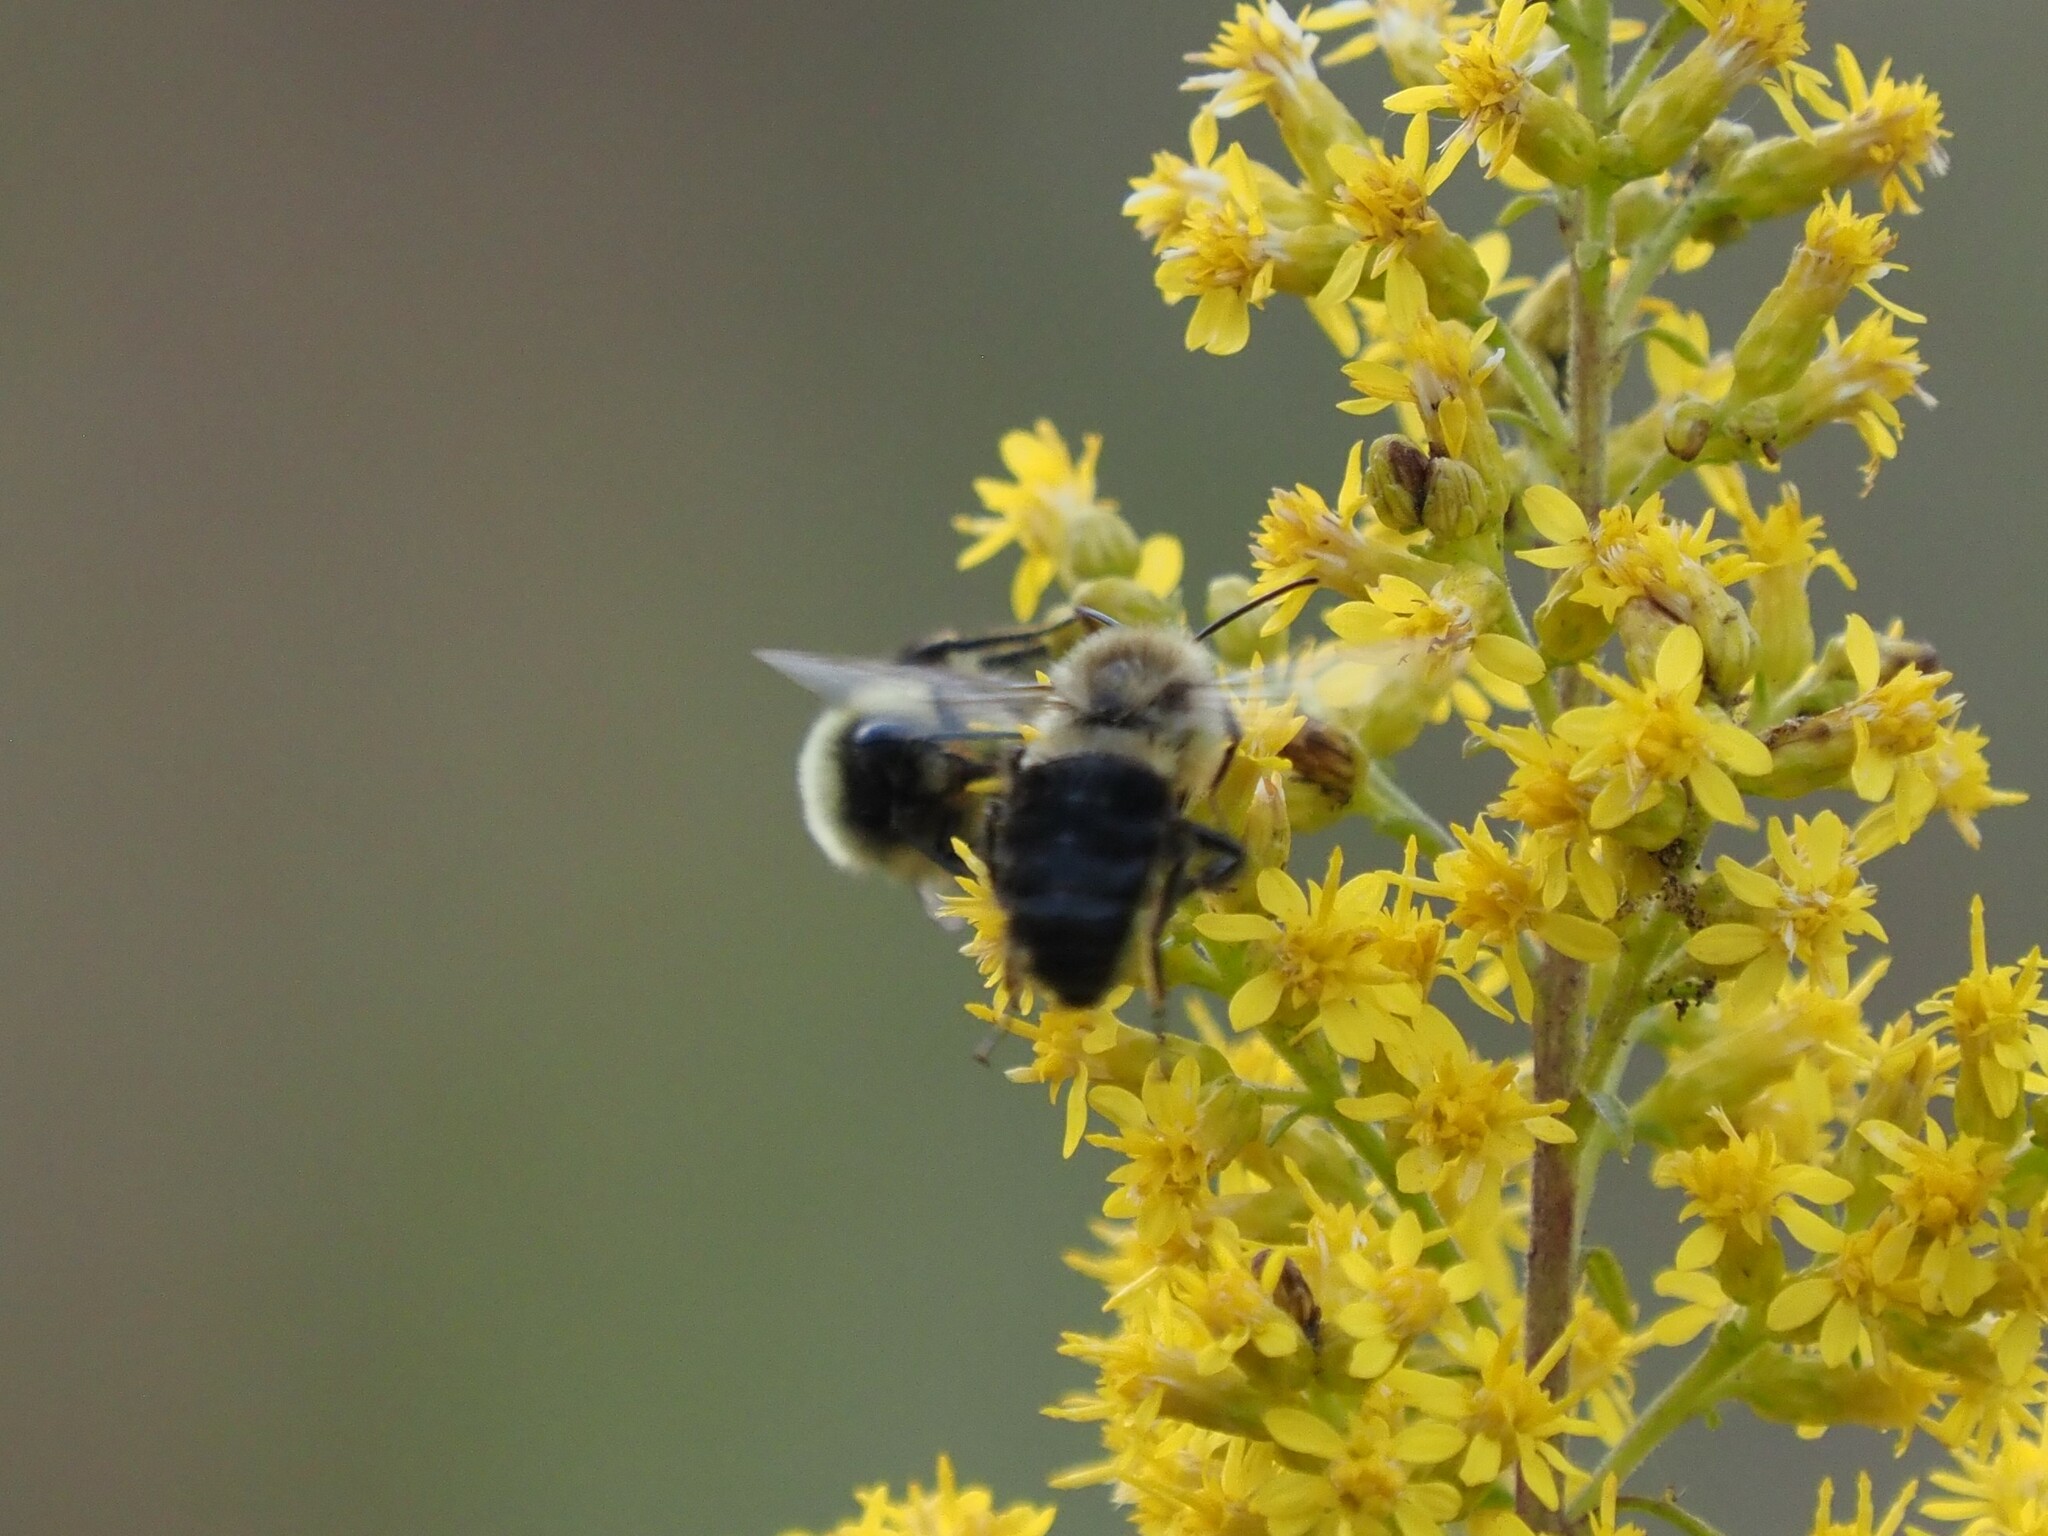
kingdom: Animalia
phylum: Arthropoda
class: Insecta
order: Hymenoptera
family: Apidae
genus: Bombus
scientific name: Bombus impatiens
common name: Common eastern bumble bee
